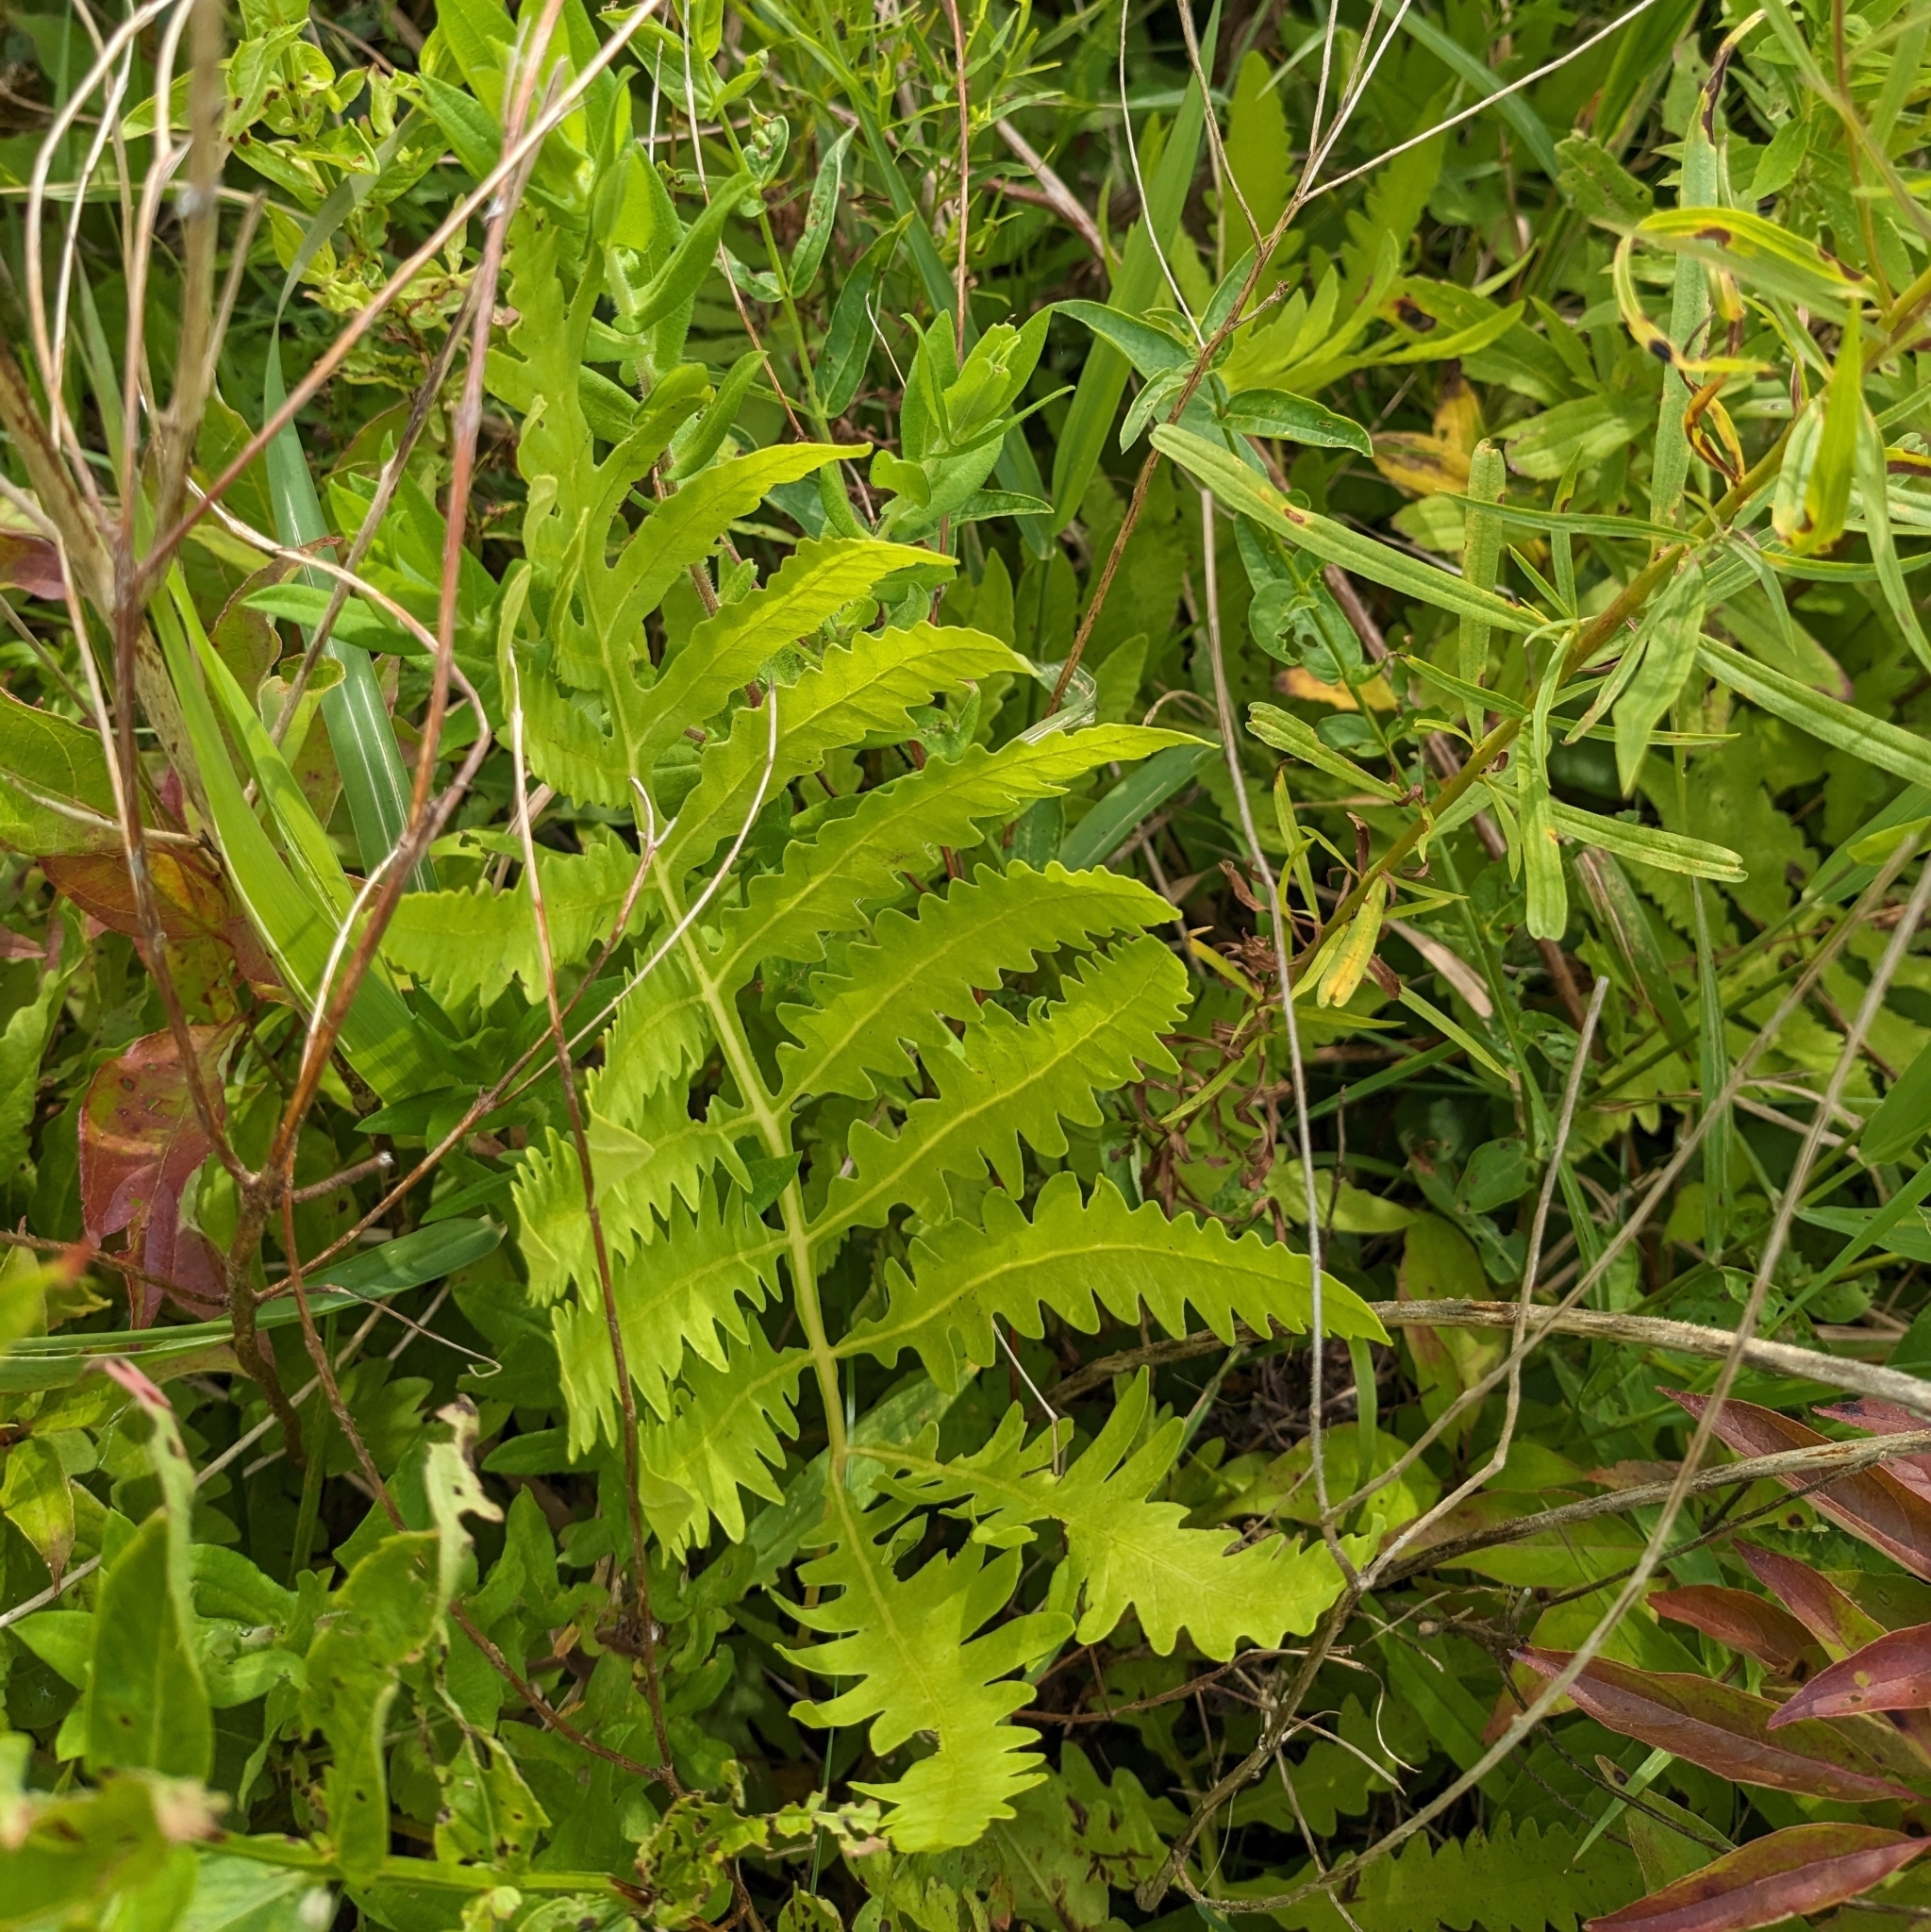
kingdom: Plantae
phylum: Tracheophyta
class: Polypodiopsida
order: Polypodiales
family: Onocleaceae
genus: Onoclea
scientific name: Onoclea sensibilis
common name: Sensitive fern
